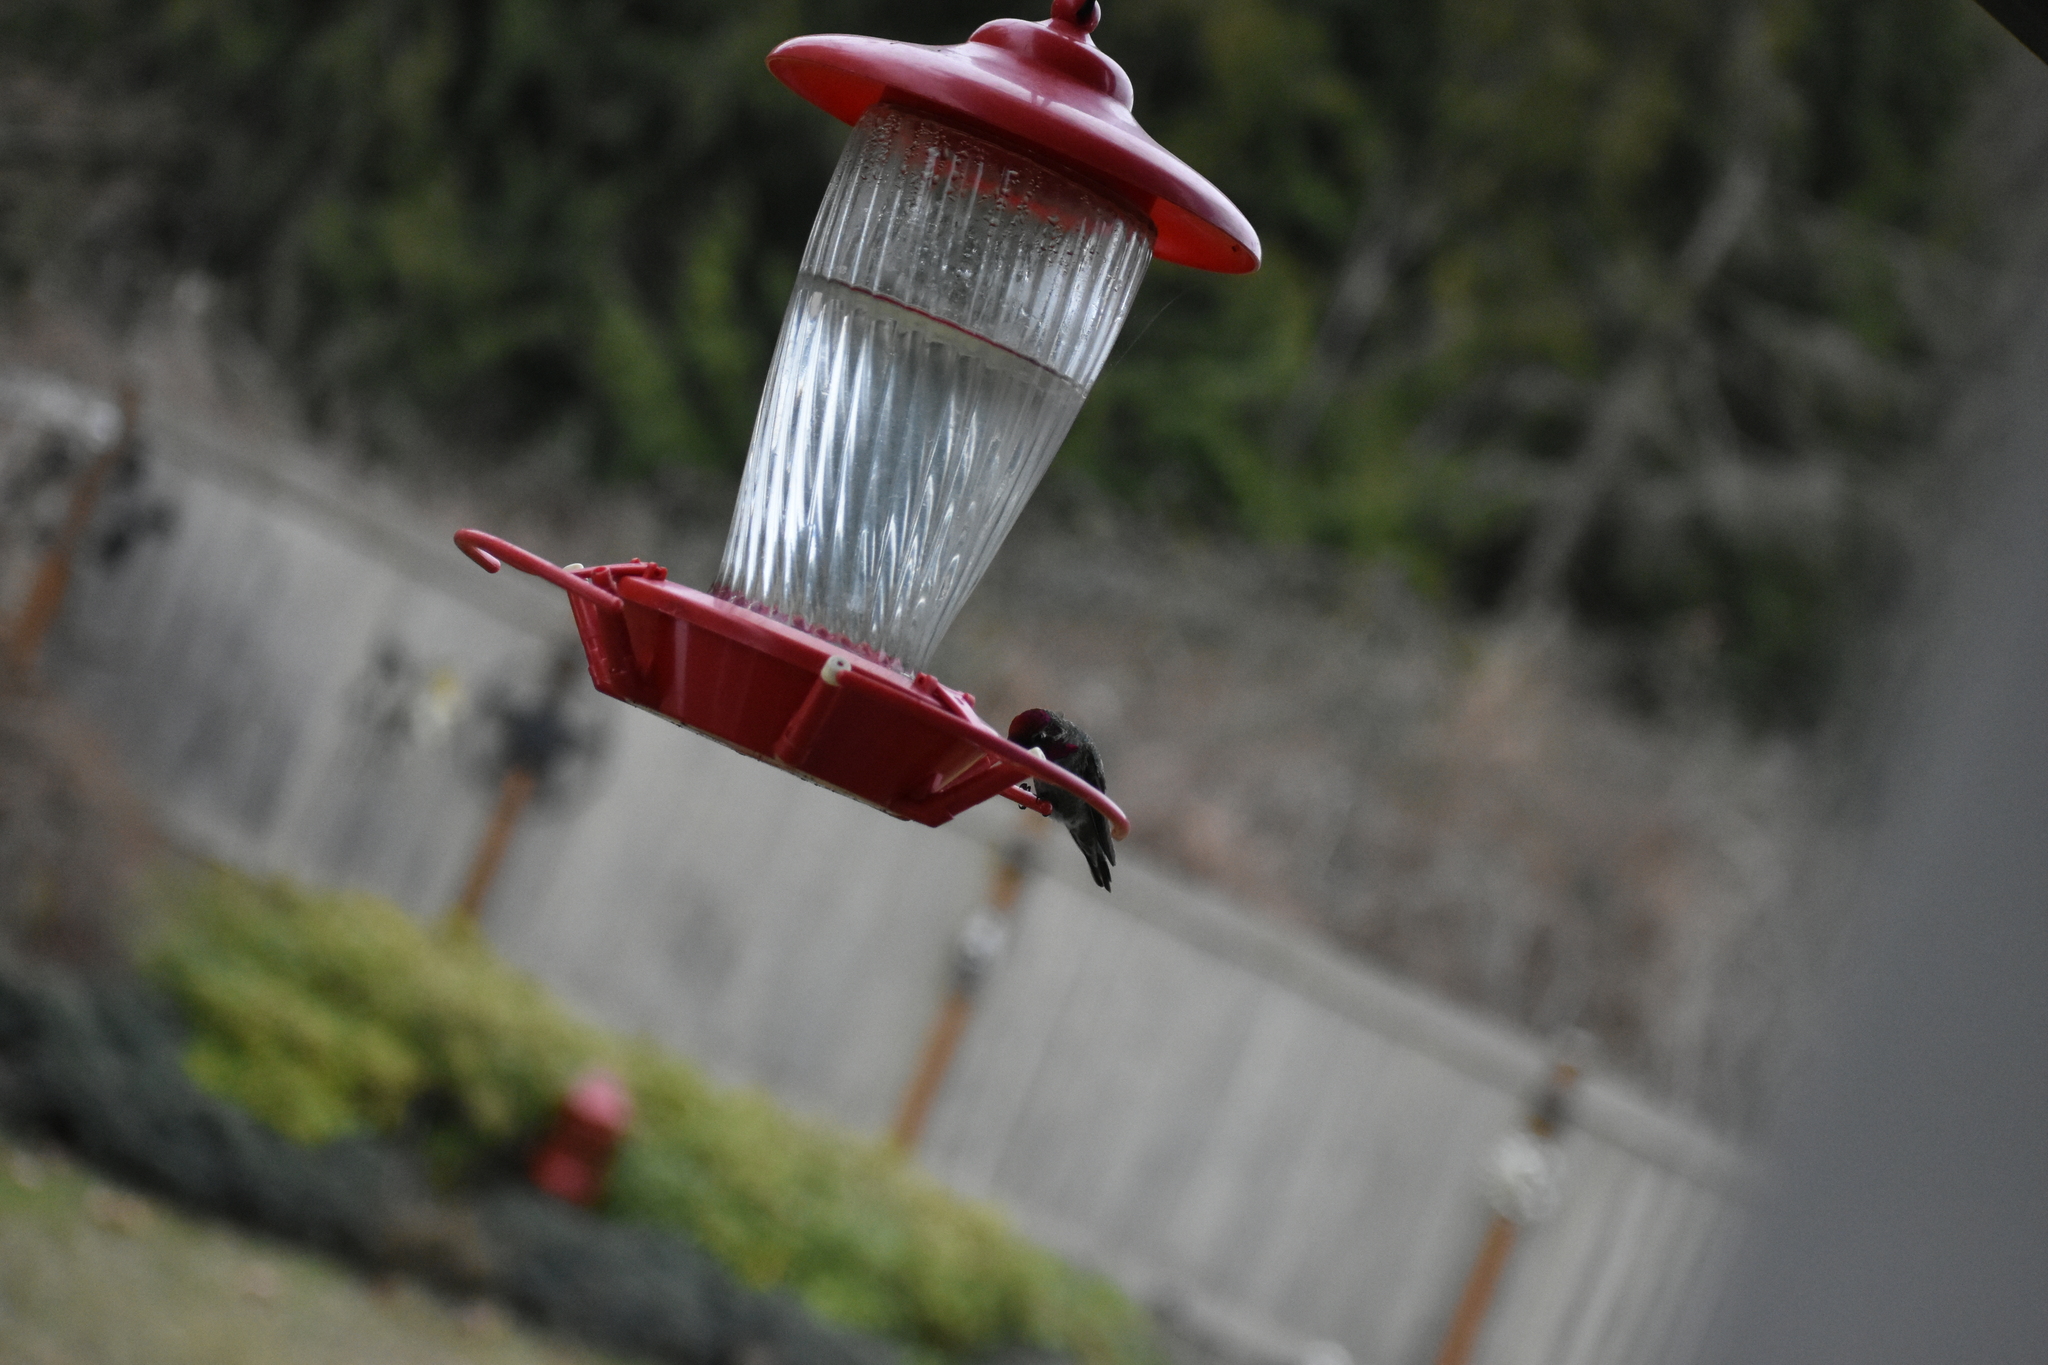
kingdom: Animalia
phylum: Chordata
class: Aves
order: Apodiformes
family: Trochilidae
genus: Calypte
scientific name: Calypte anna
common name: Anna's hummingbird
